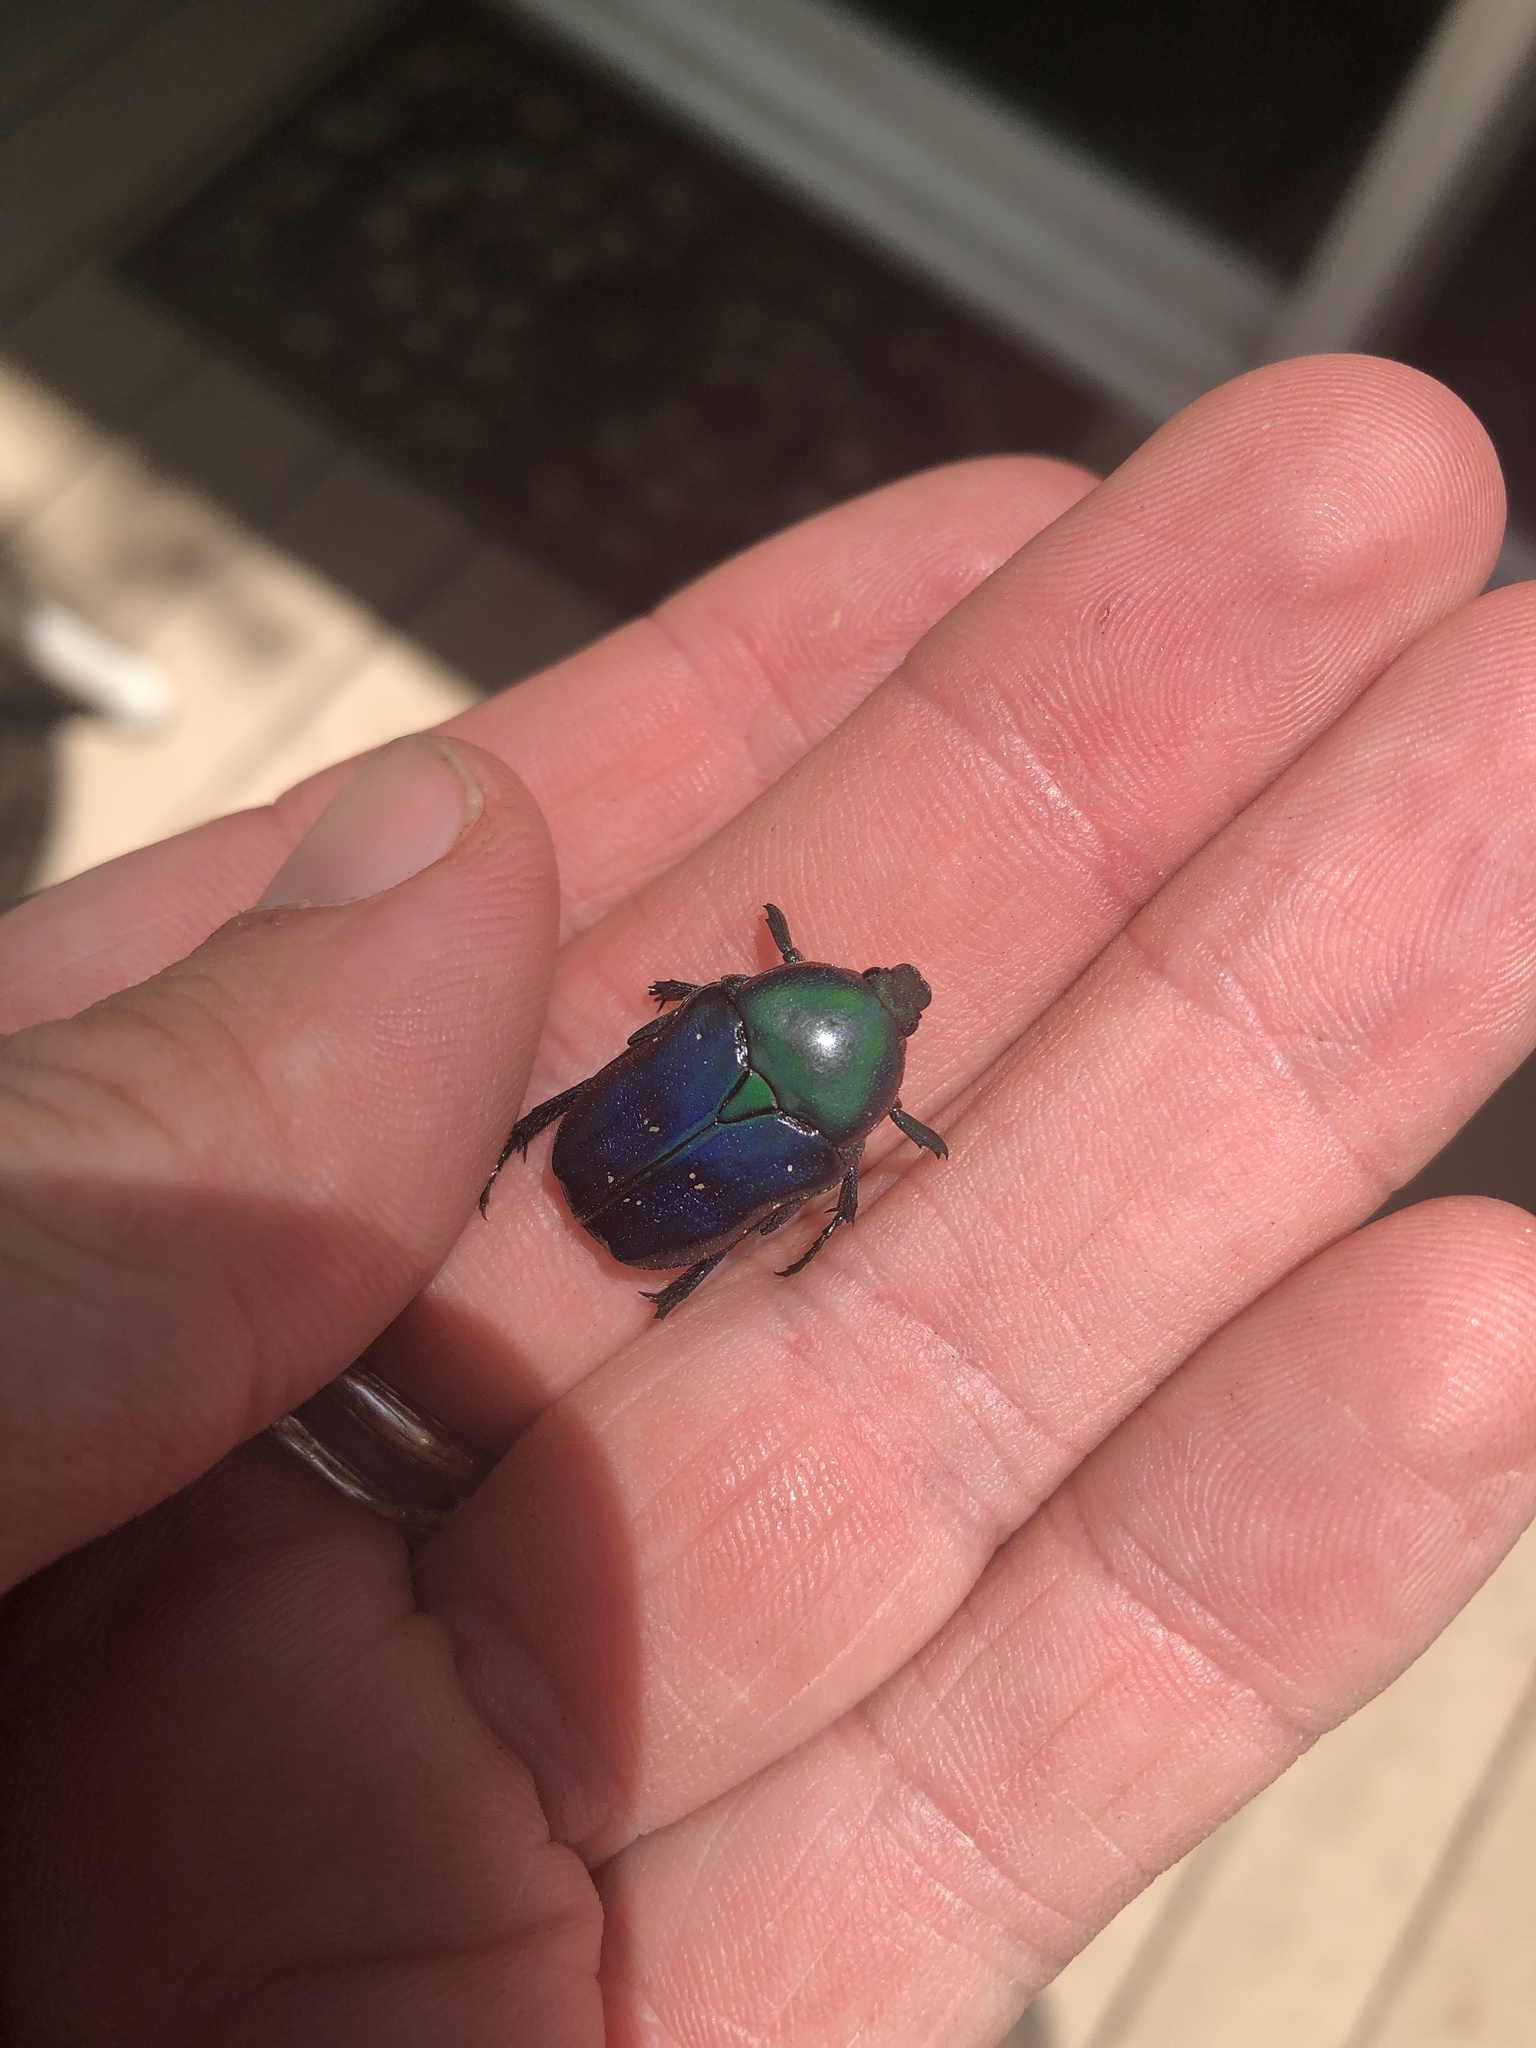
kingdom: Animalia
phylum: Arthropoda
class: Insecta
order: Coleoptera
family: Scarabaeidae
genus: Euphoria
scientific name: Euphoria fulgida
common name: Emerald euphoria
